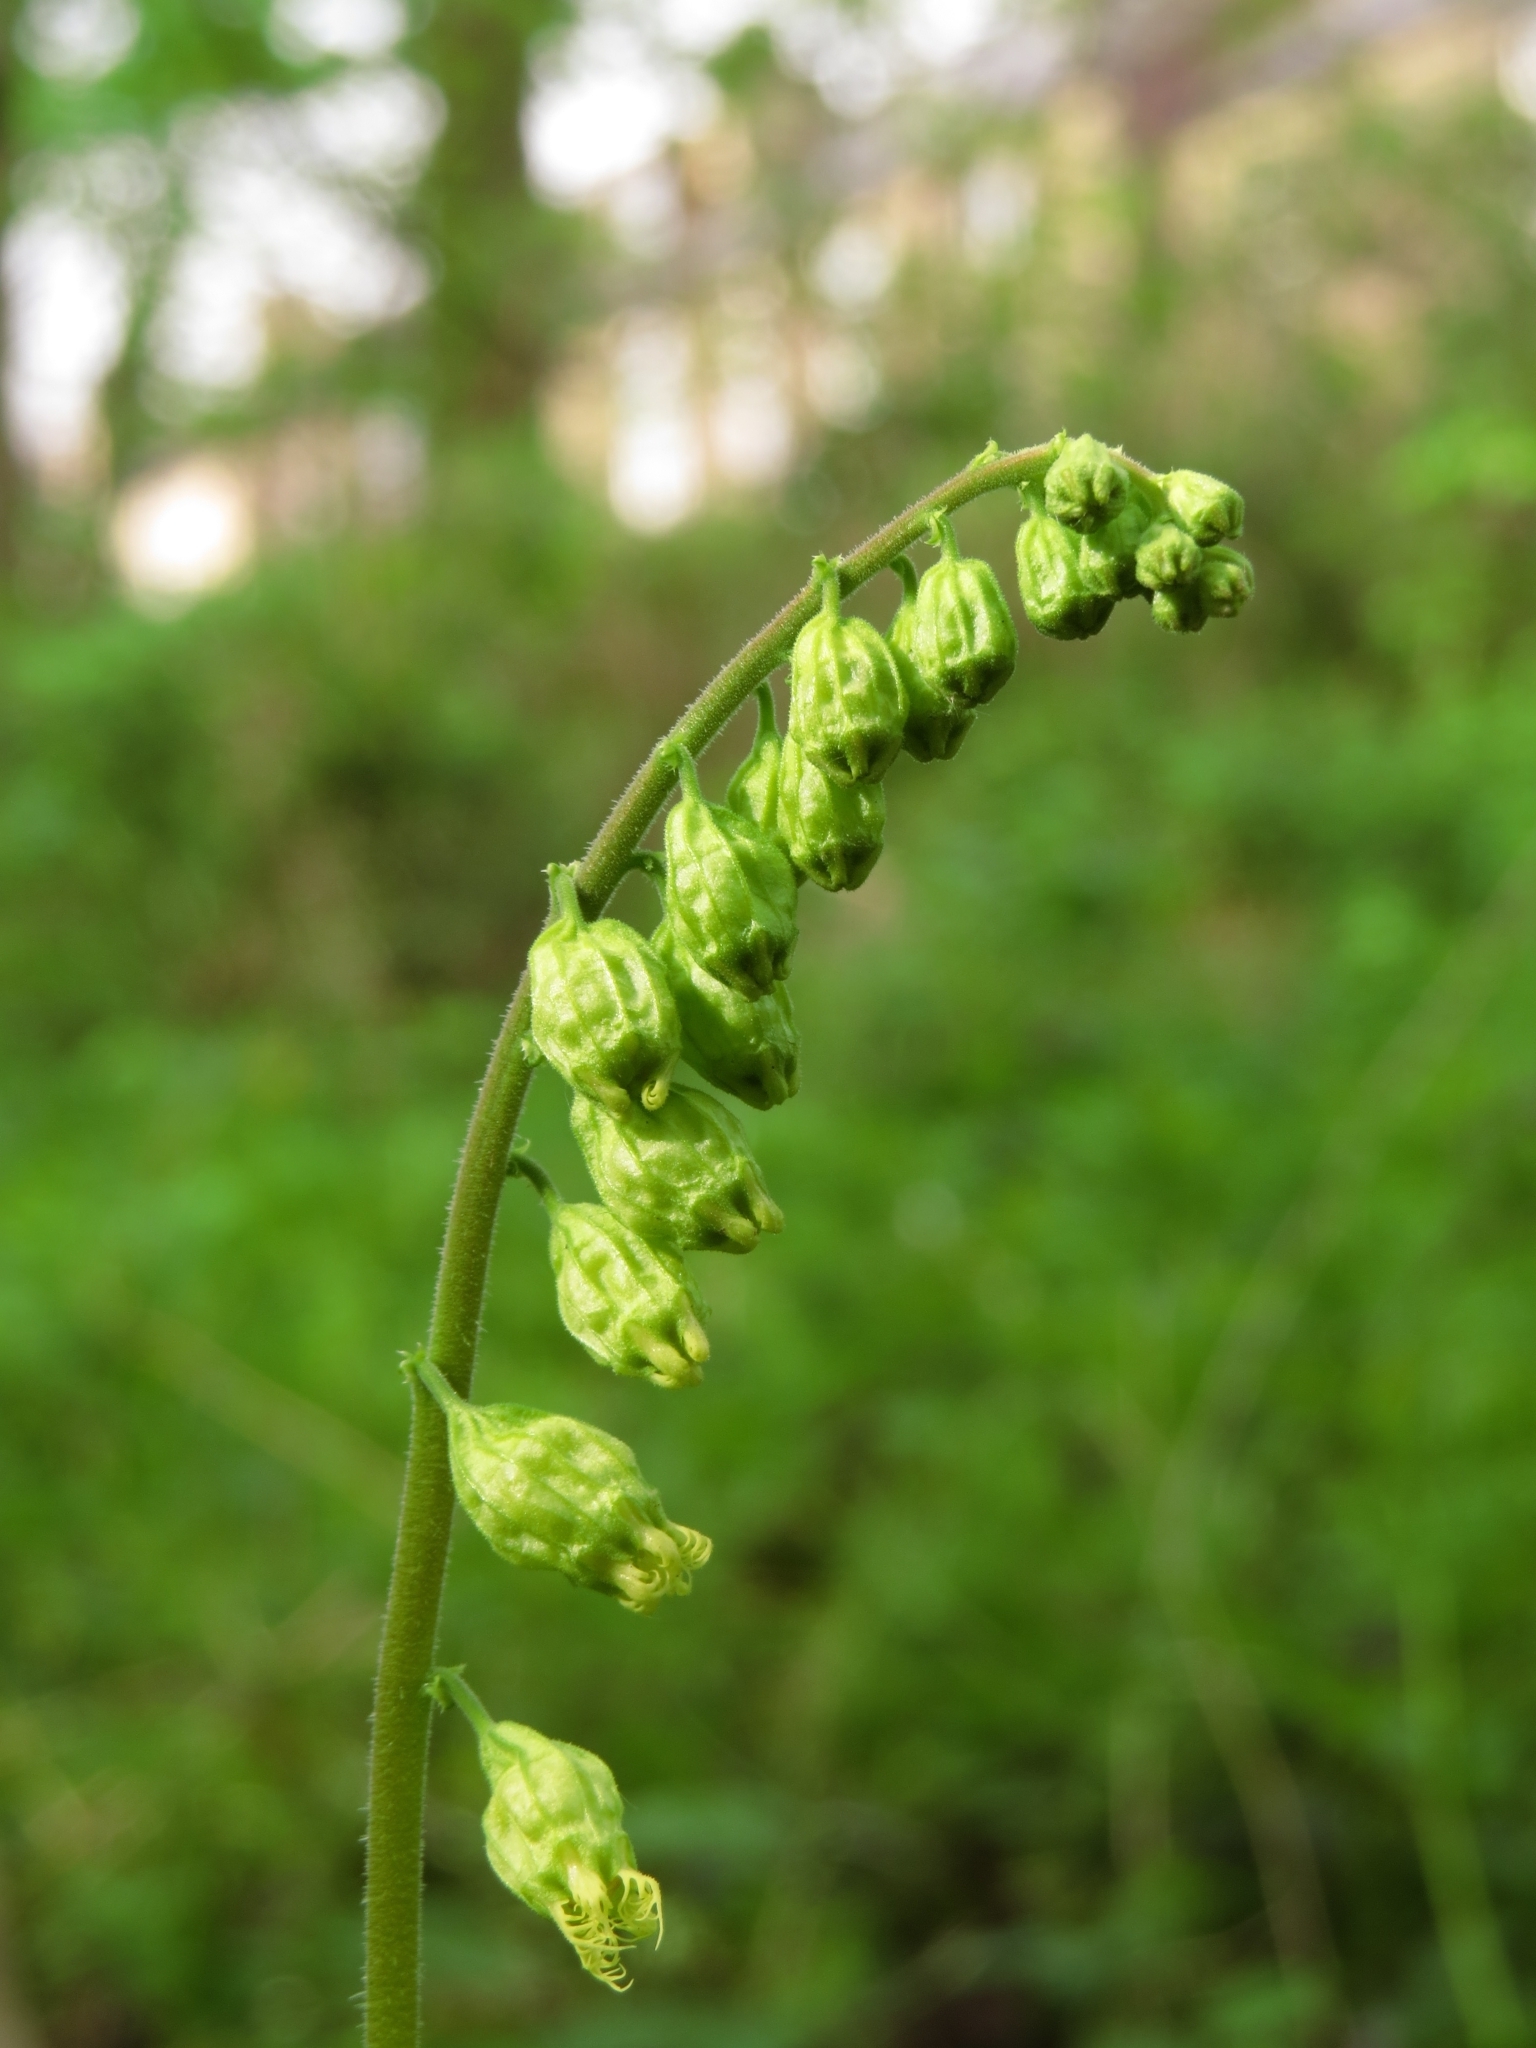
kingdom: Plantae
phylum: Tracheophyta
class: Magnoliopsida
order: Saxifragales
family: Saxifragaceae
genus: Tellima
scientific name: Tellima grandiflora
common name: Fringecups
